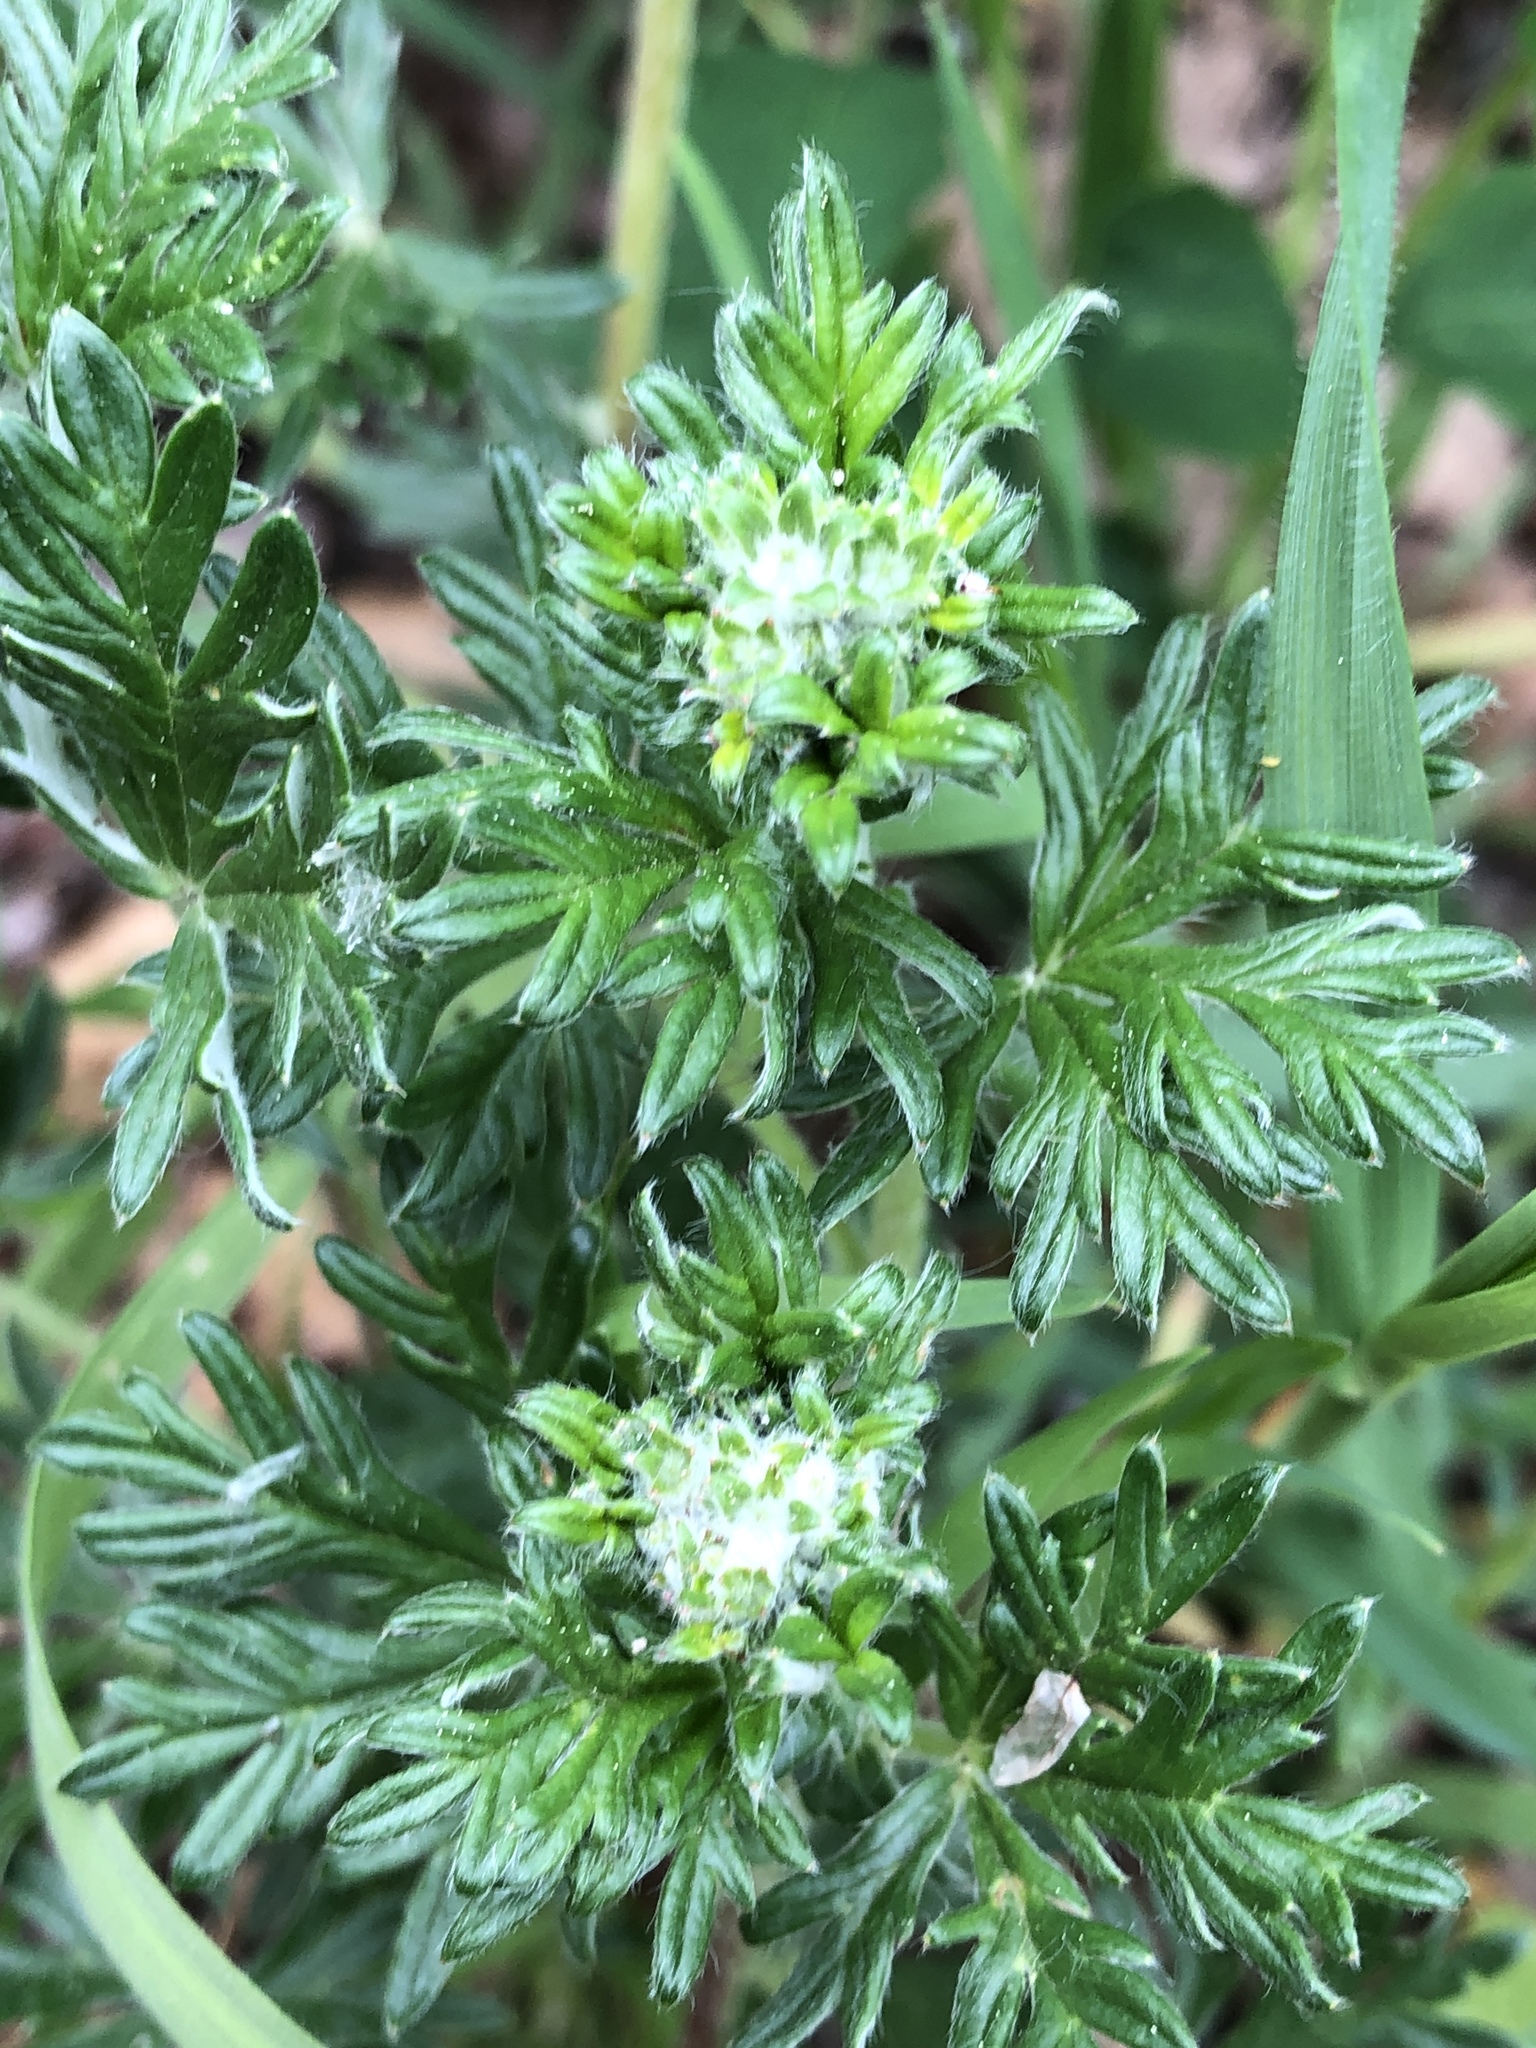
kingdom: Plantae
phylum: Tracheophyta
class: Magnoliopsida
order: Rosales
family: Rosaceae
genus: Potentilla
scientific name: Potentilla argentea
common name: Hoary cinquefoil
